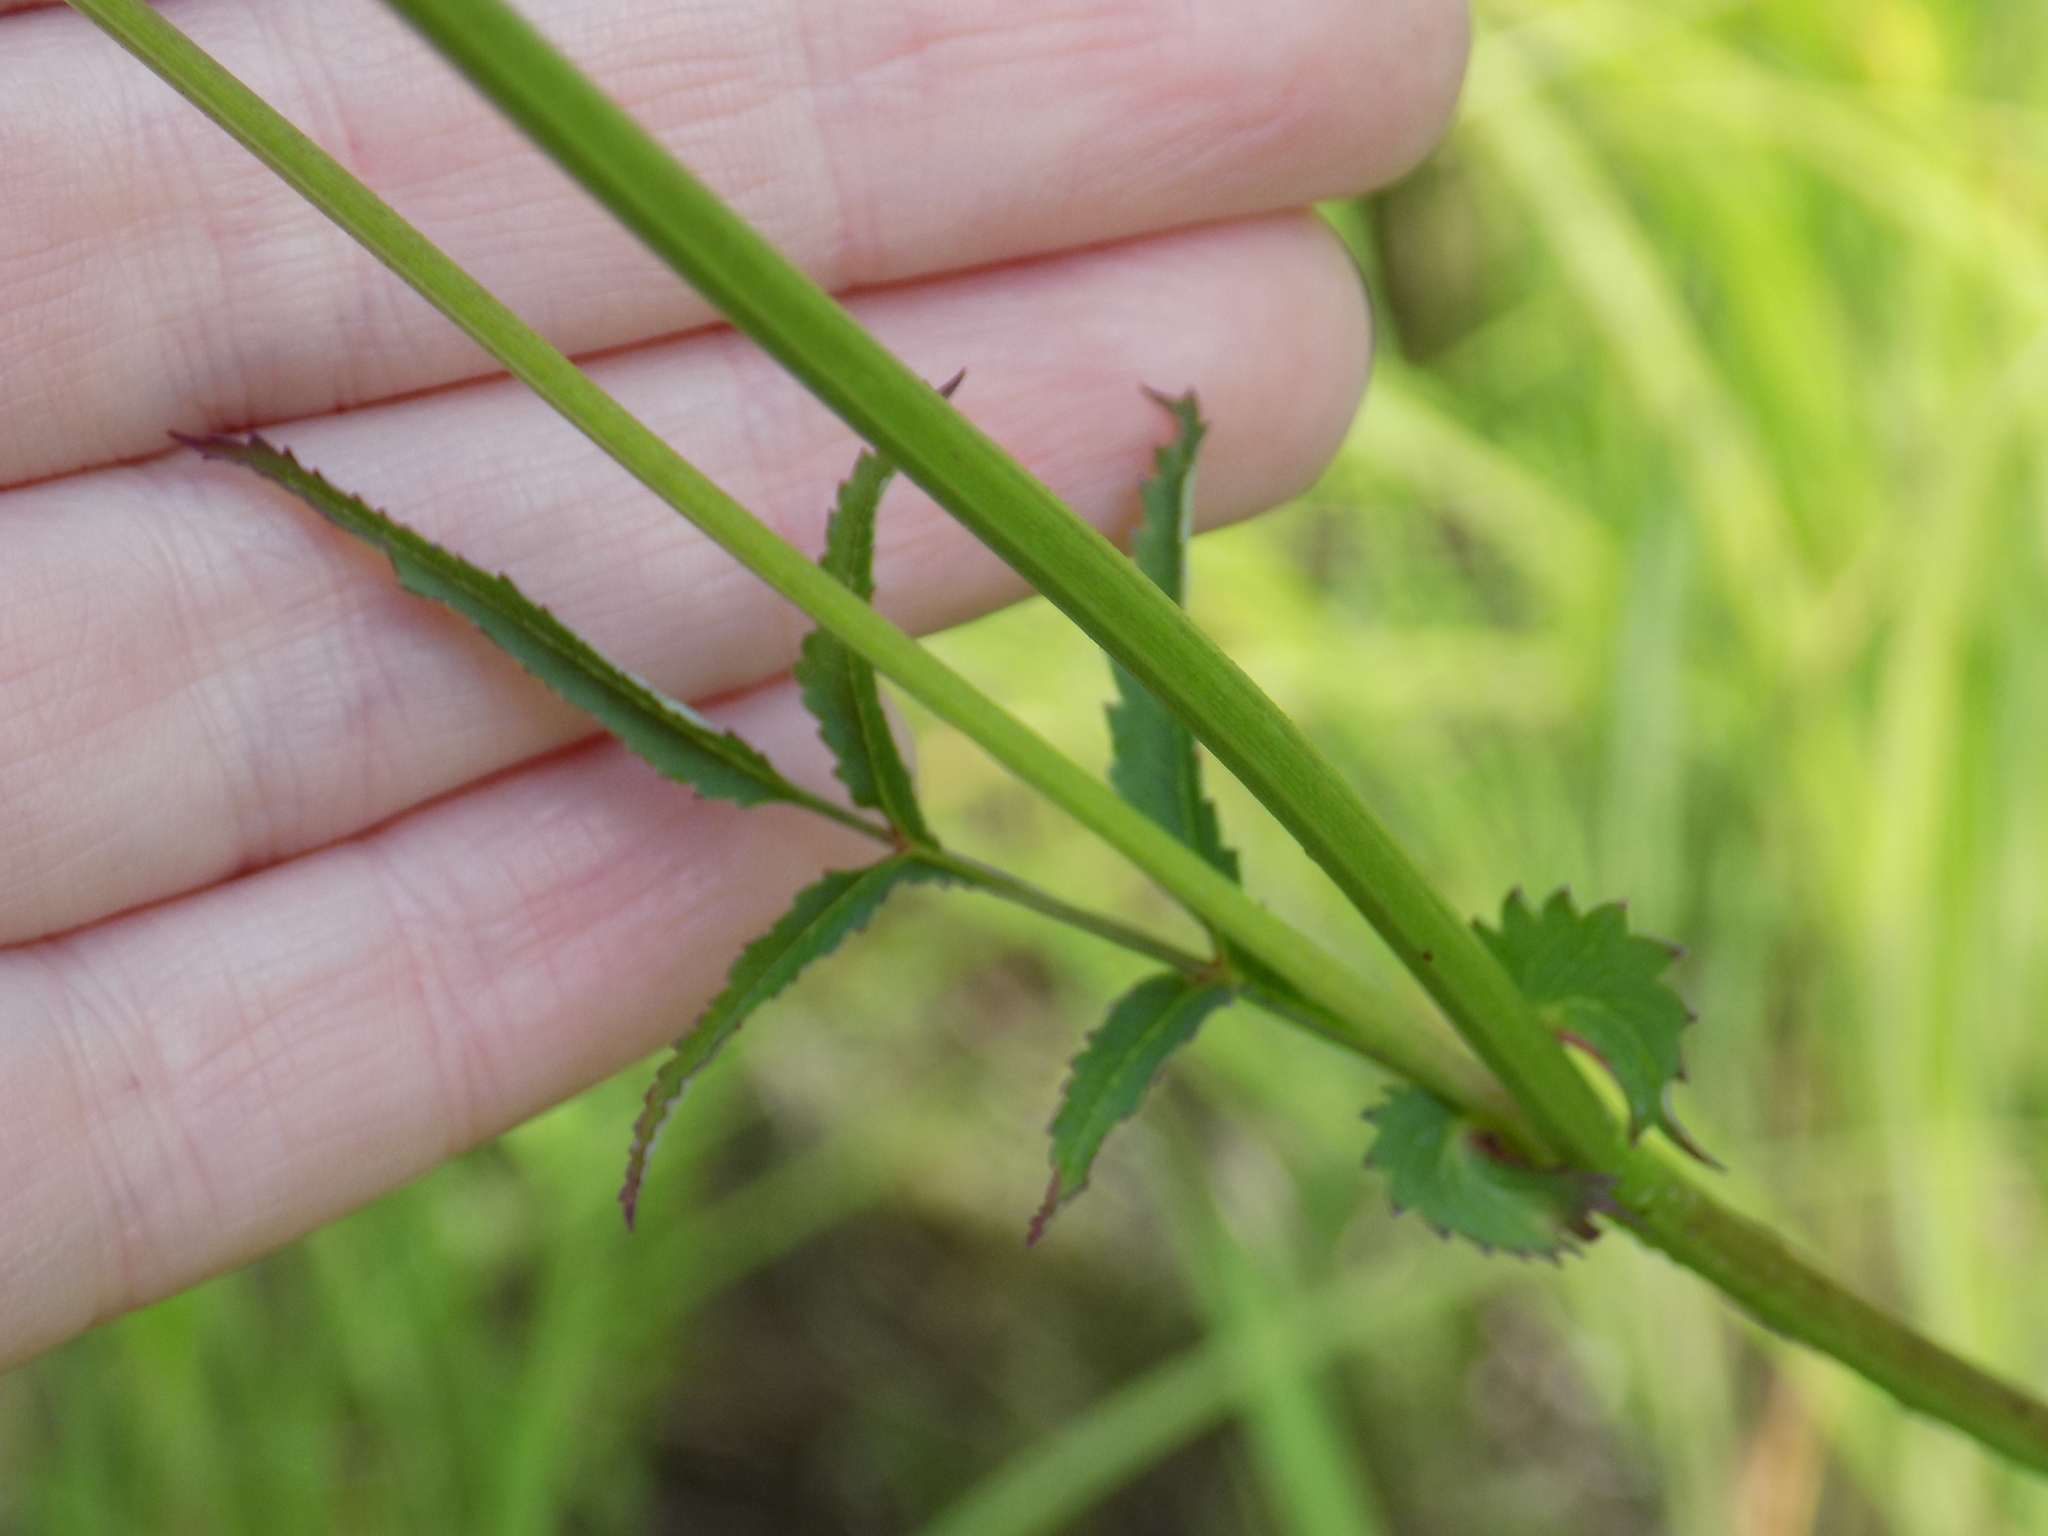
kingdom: Plantae
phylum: Tracheophyta
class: Magnoliopsida
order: Rosales
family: Rosaceae
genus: Sanguisorba
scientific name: Sanguisorba officinalis
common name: Great burnet
